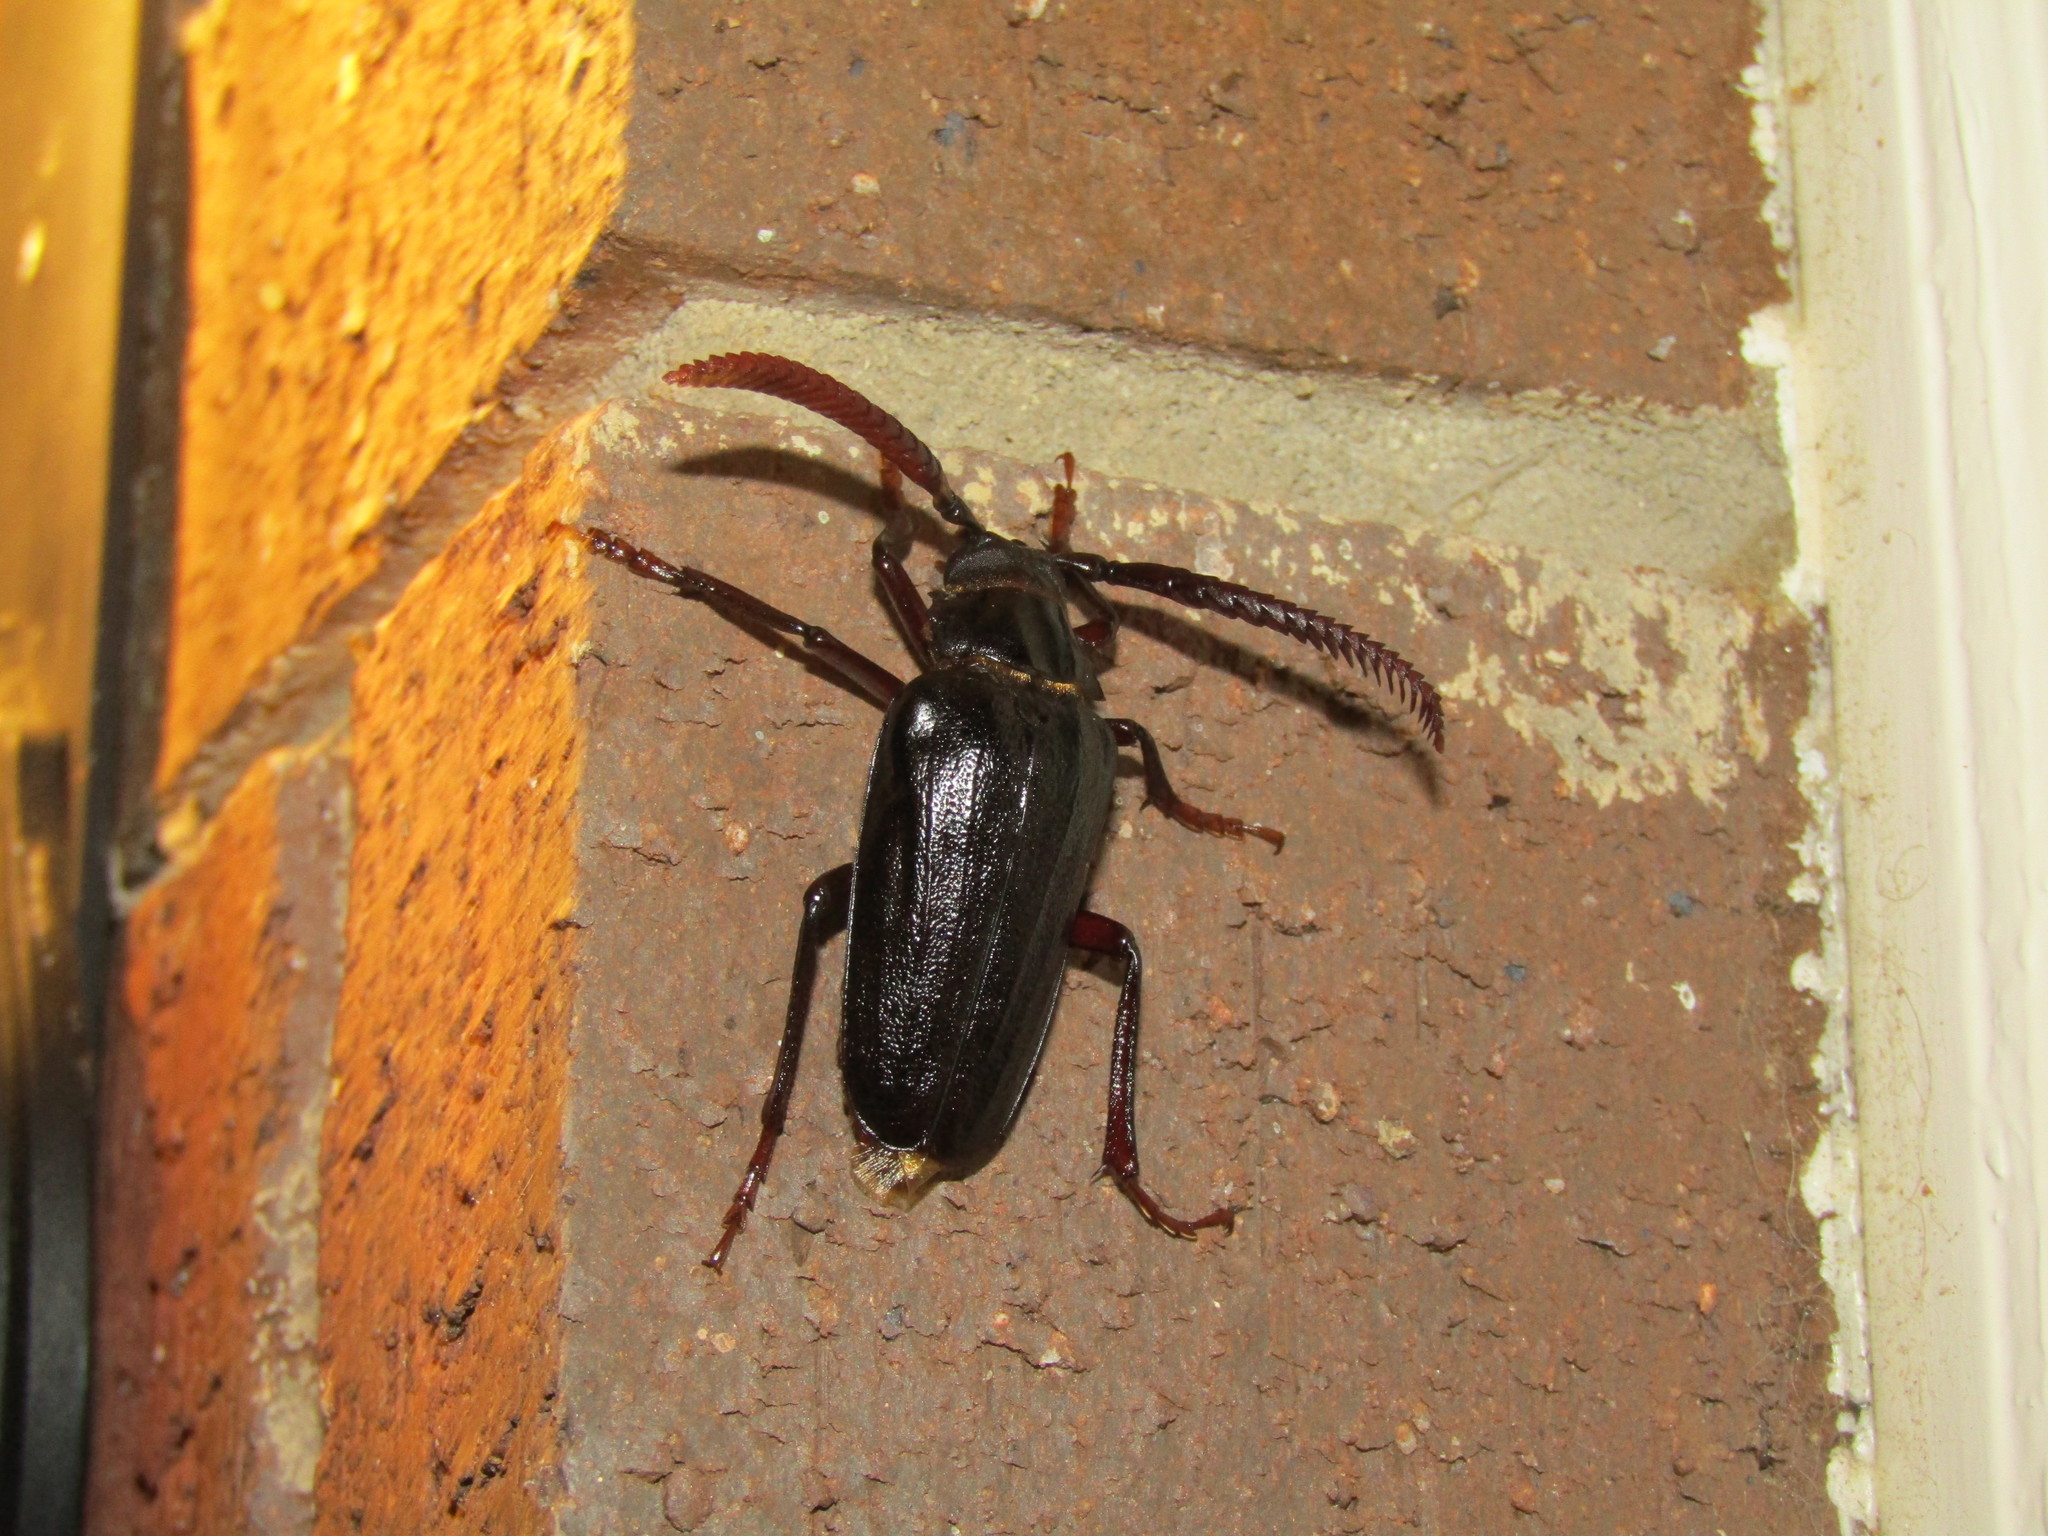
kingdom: Animalia
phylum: Arthropoda
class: Insecta
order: Coleoptera
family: Cerambycidae
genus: Prionus
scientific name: Prionus imbricornis
